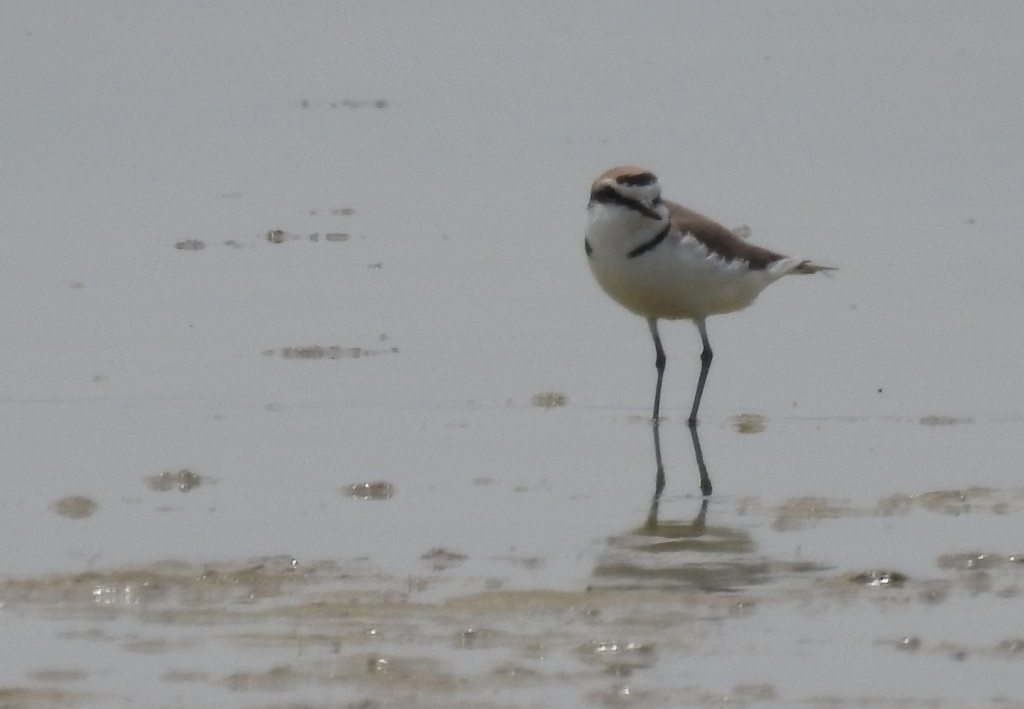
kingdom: Animalia
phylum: Chordata
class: Aves
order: Charadriiformes
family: Charadriidae
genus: Charadrius
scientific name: Charadrius alexandrinus
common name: Kentish plover
